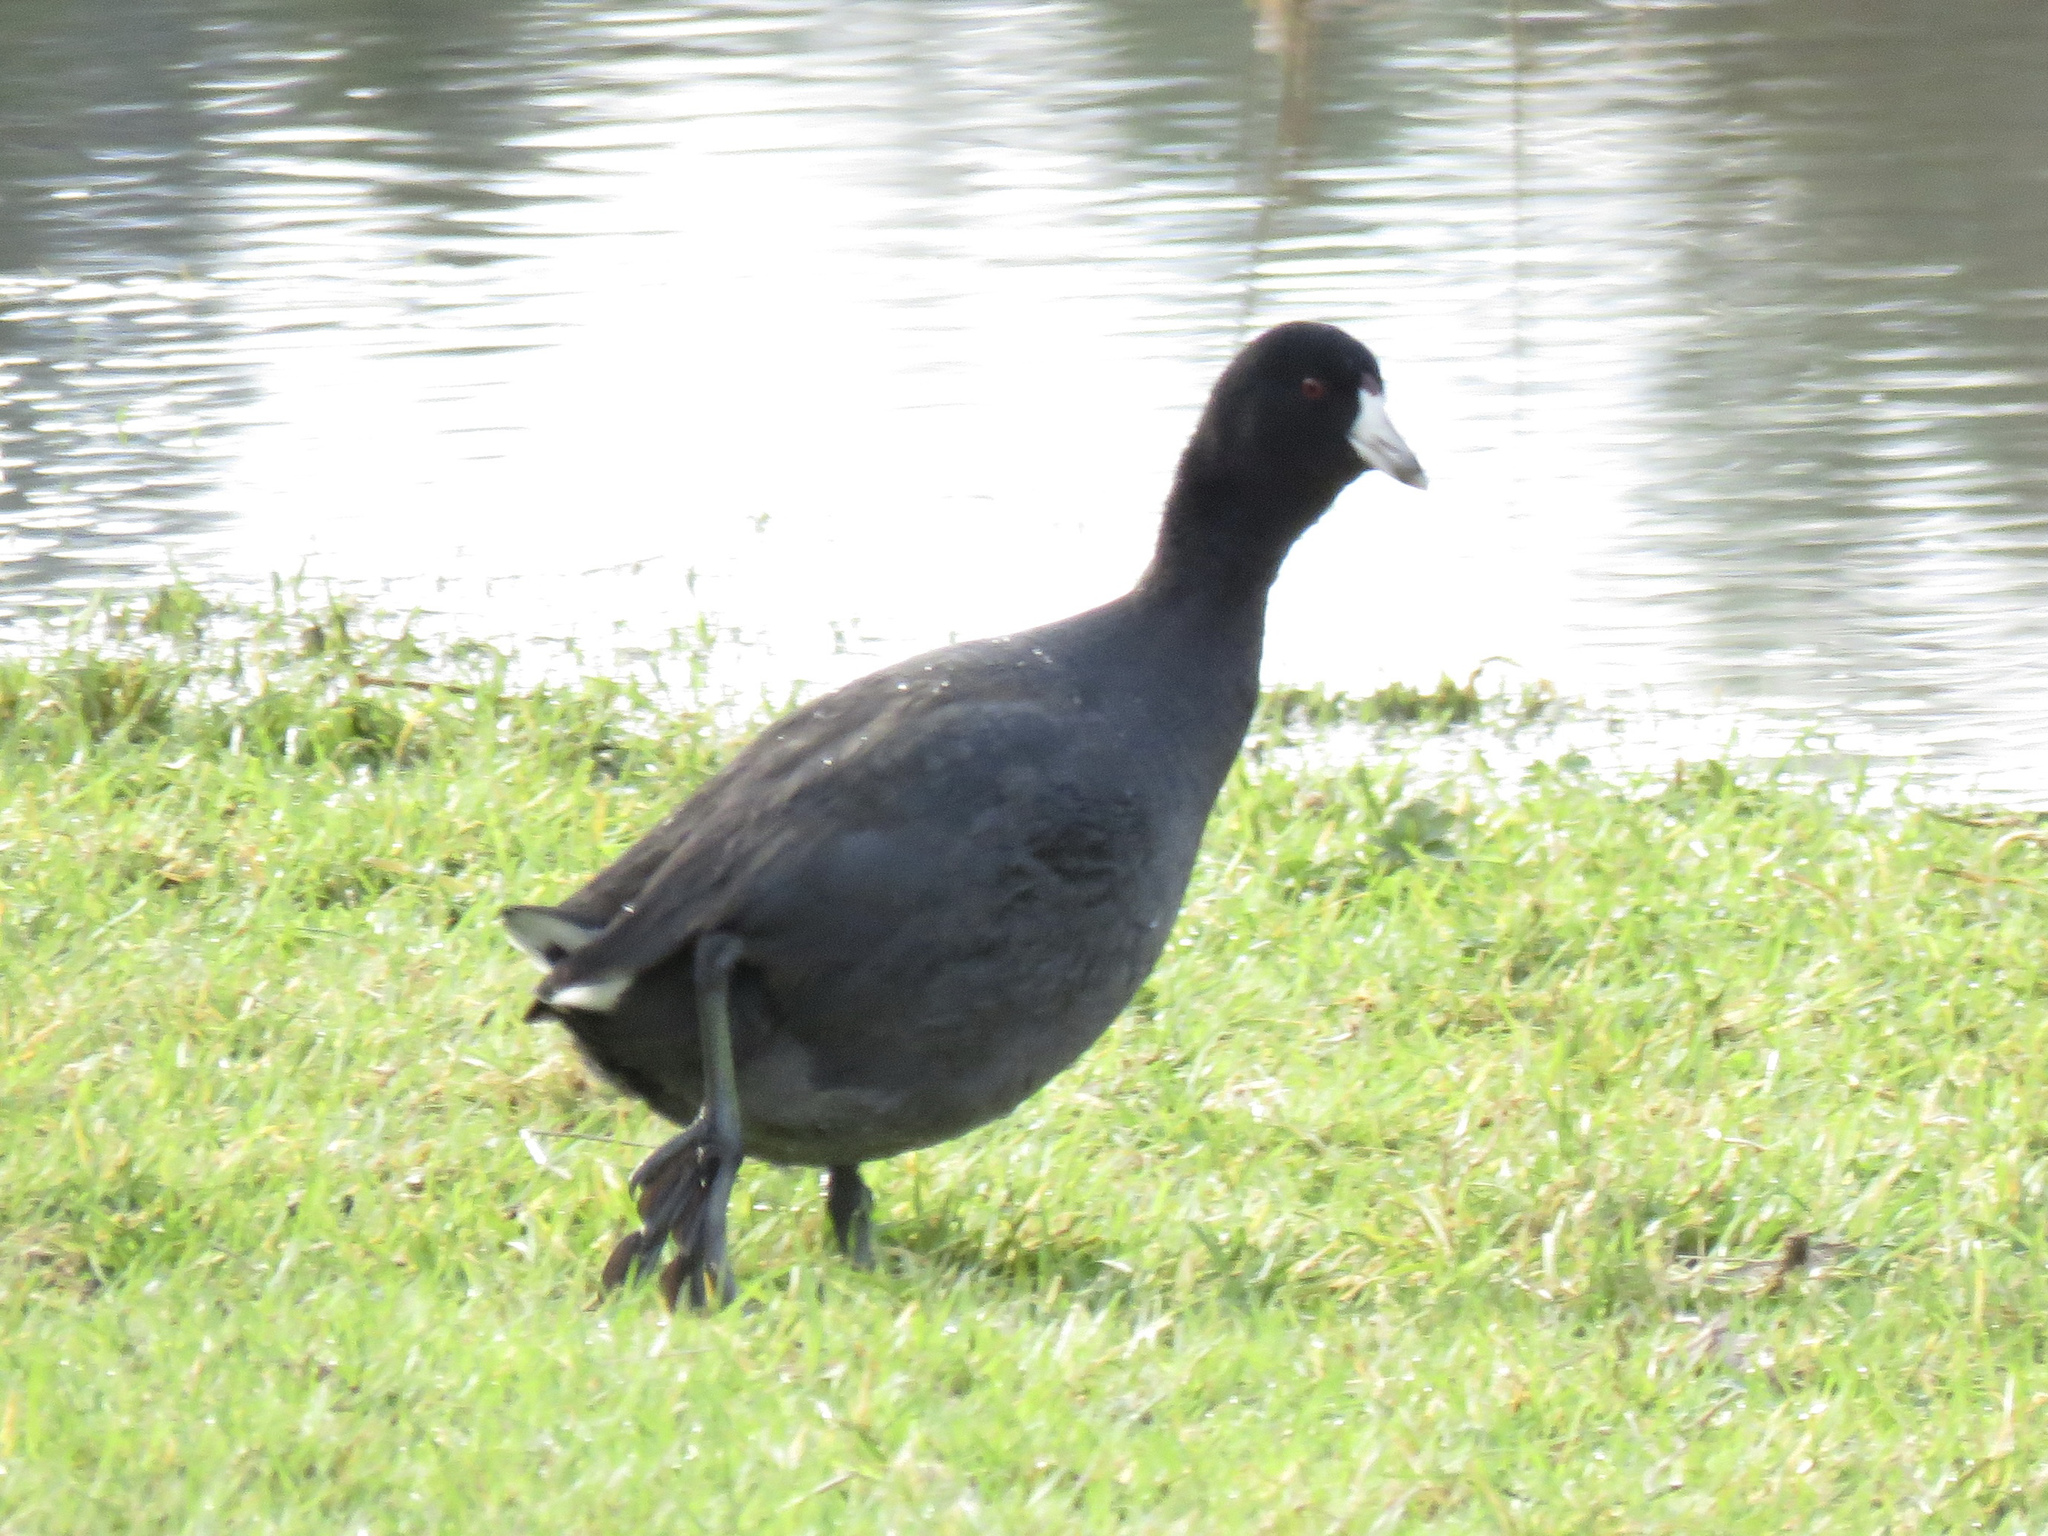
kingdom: Animalia
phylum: Chordata
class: Aves
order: Gruiformes
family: Rallidae
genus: Fulica
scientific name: Fulica americana
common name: American coot
